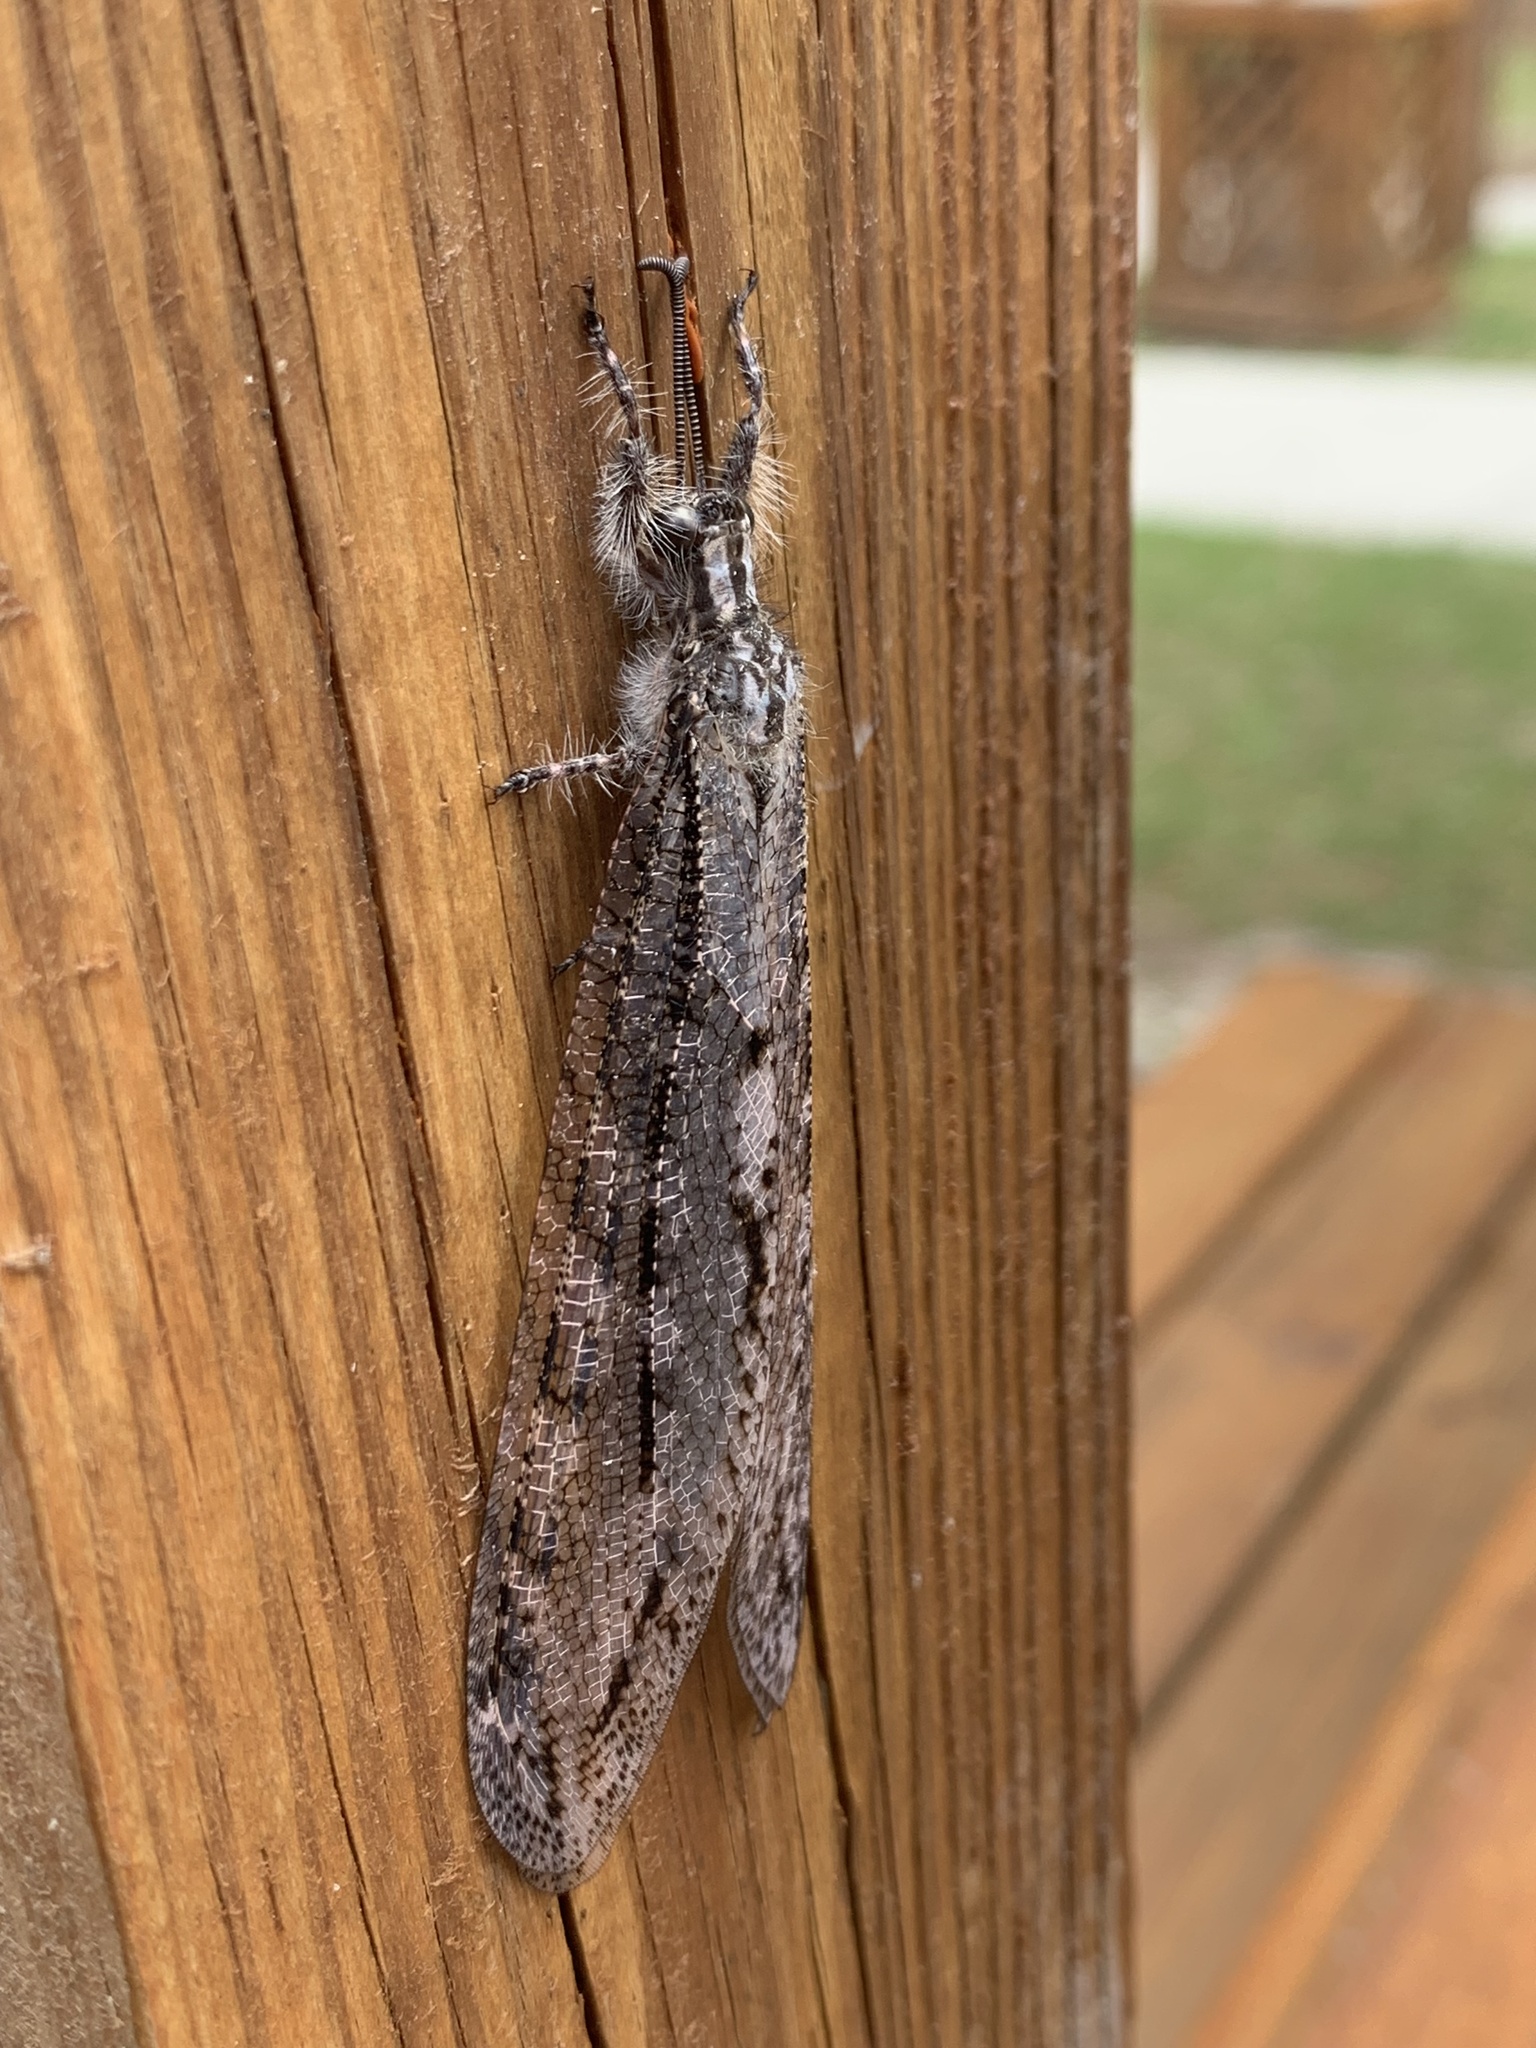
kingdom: Animalia
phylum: Arthropoda
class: Insecta
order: Neuroptera
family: Myrmeleontidae
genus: Vella
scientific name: Vella americana
